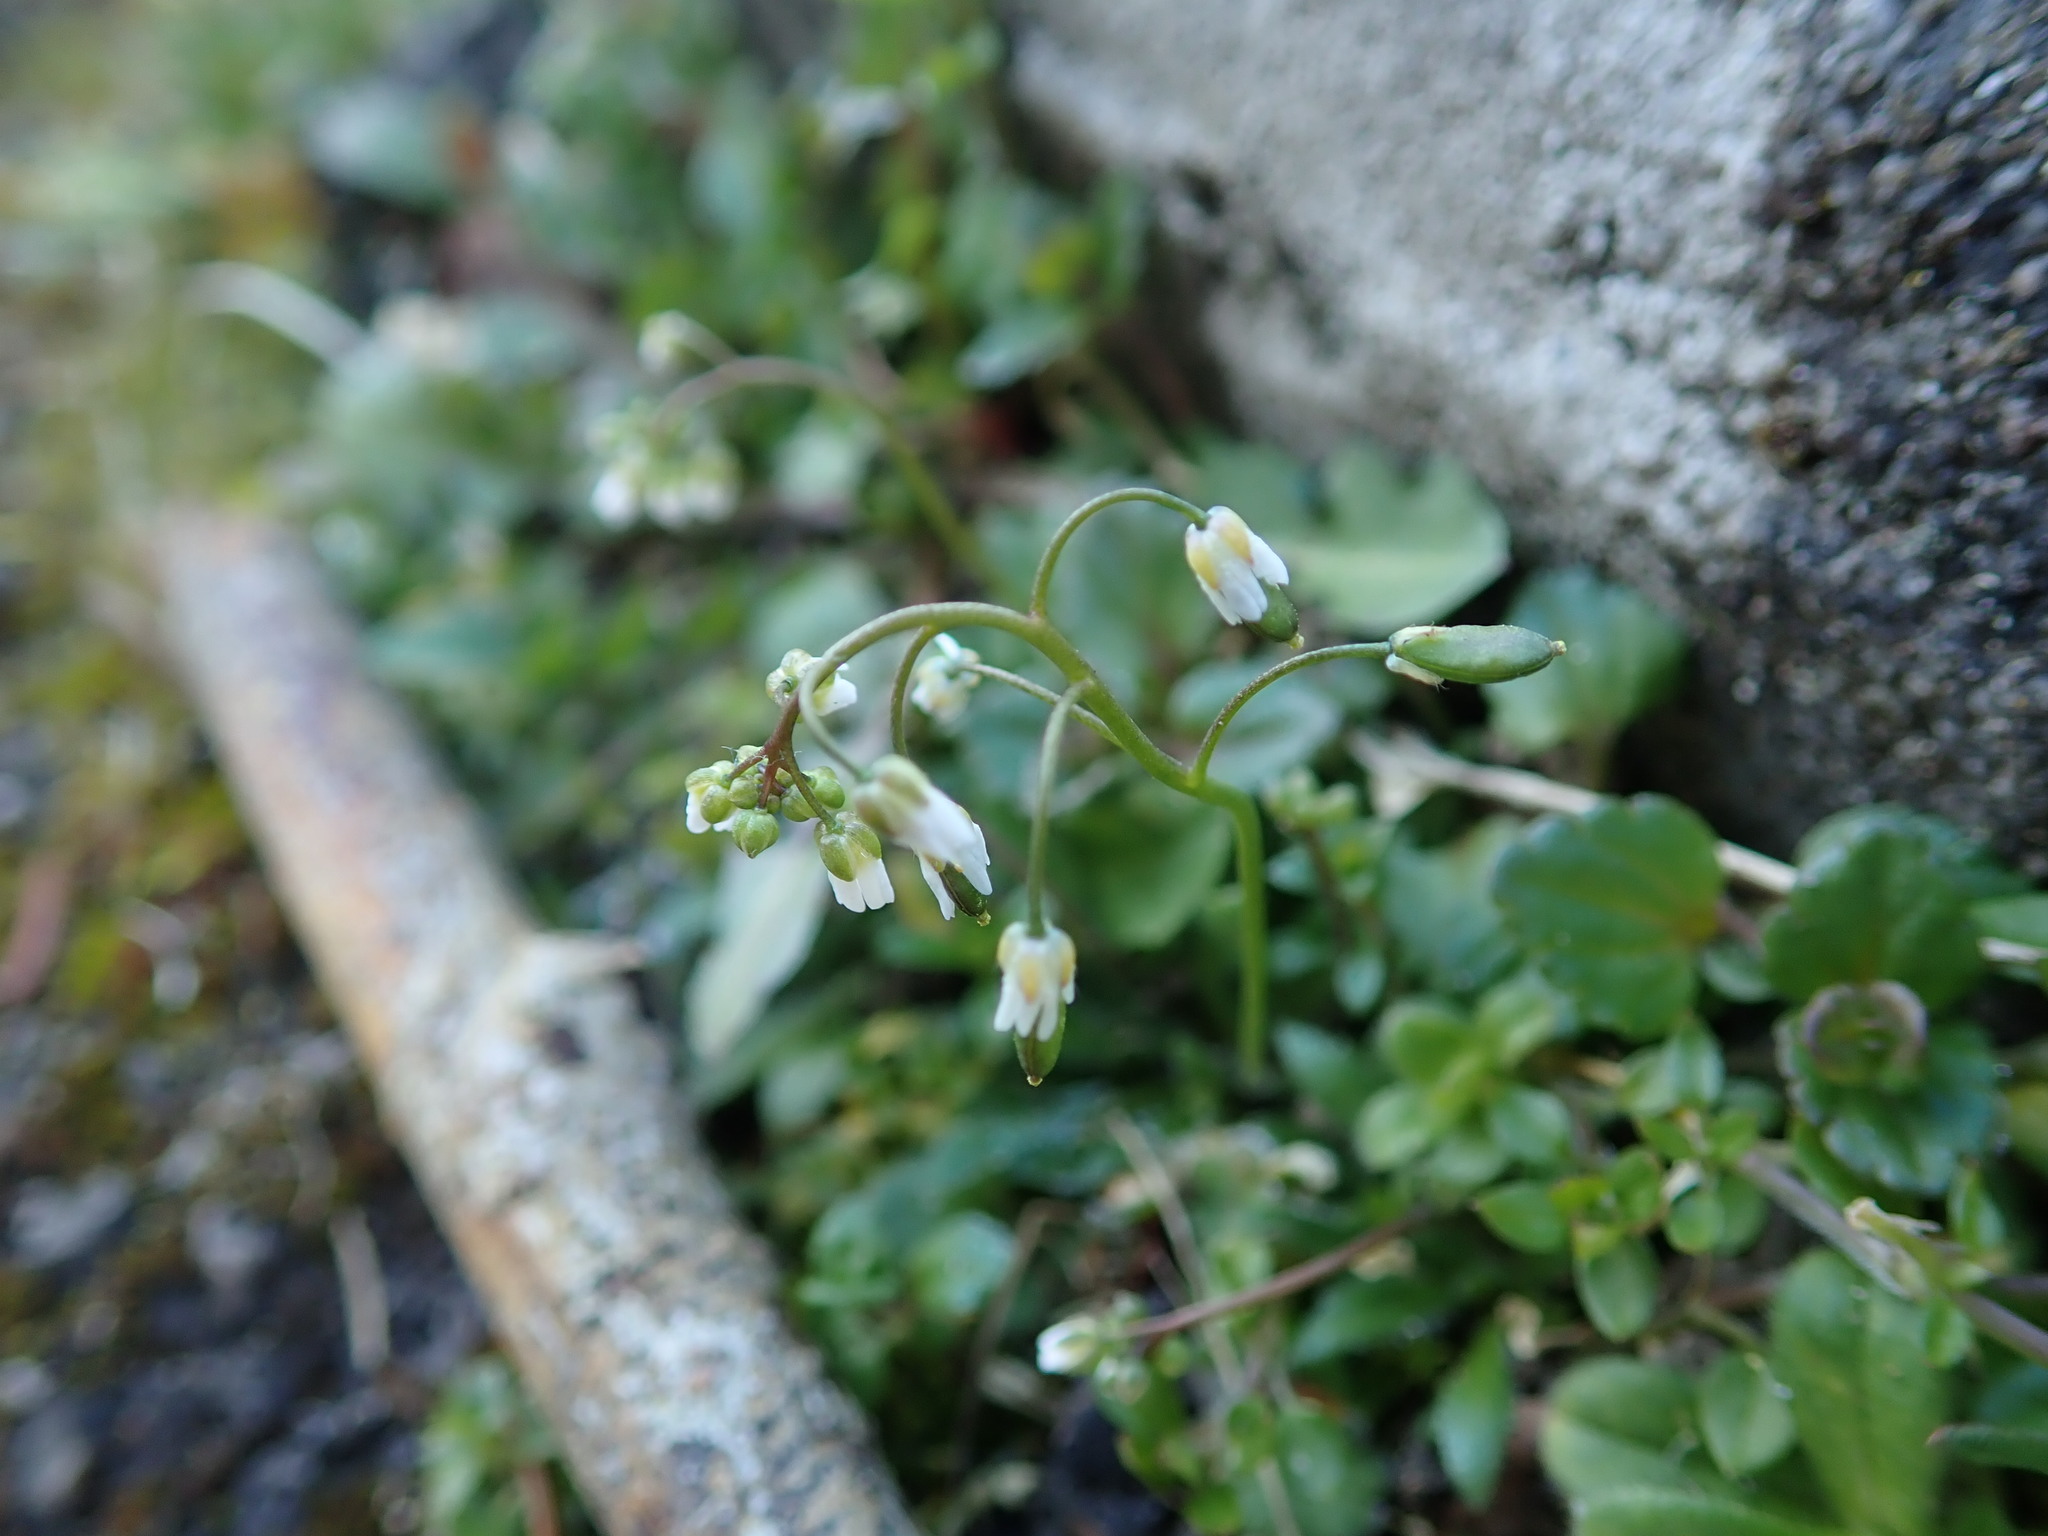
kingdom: Plantae
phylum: Tracheophyta
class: Magnoliopsida
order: Brassicales
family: Brassicaceae
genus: Draba
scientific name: Draba verna
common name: Spring draba
